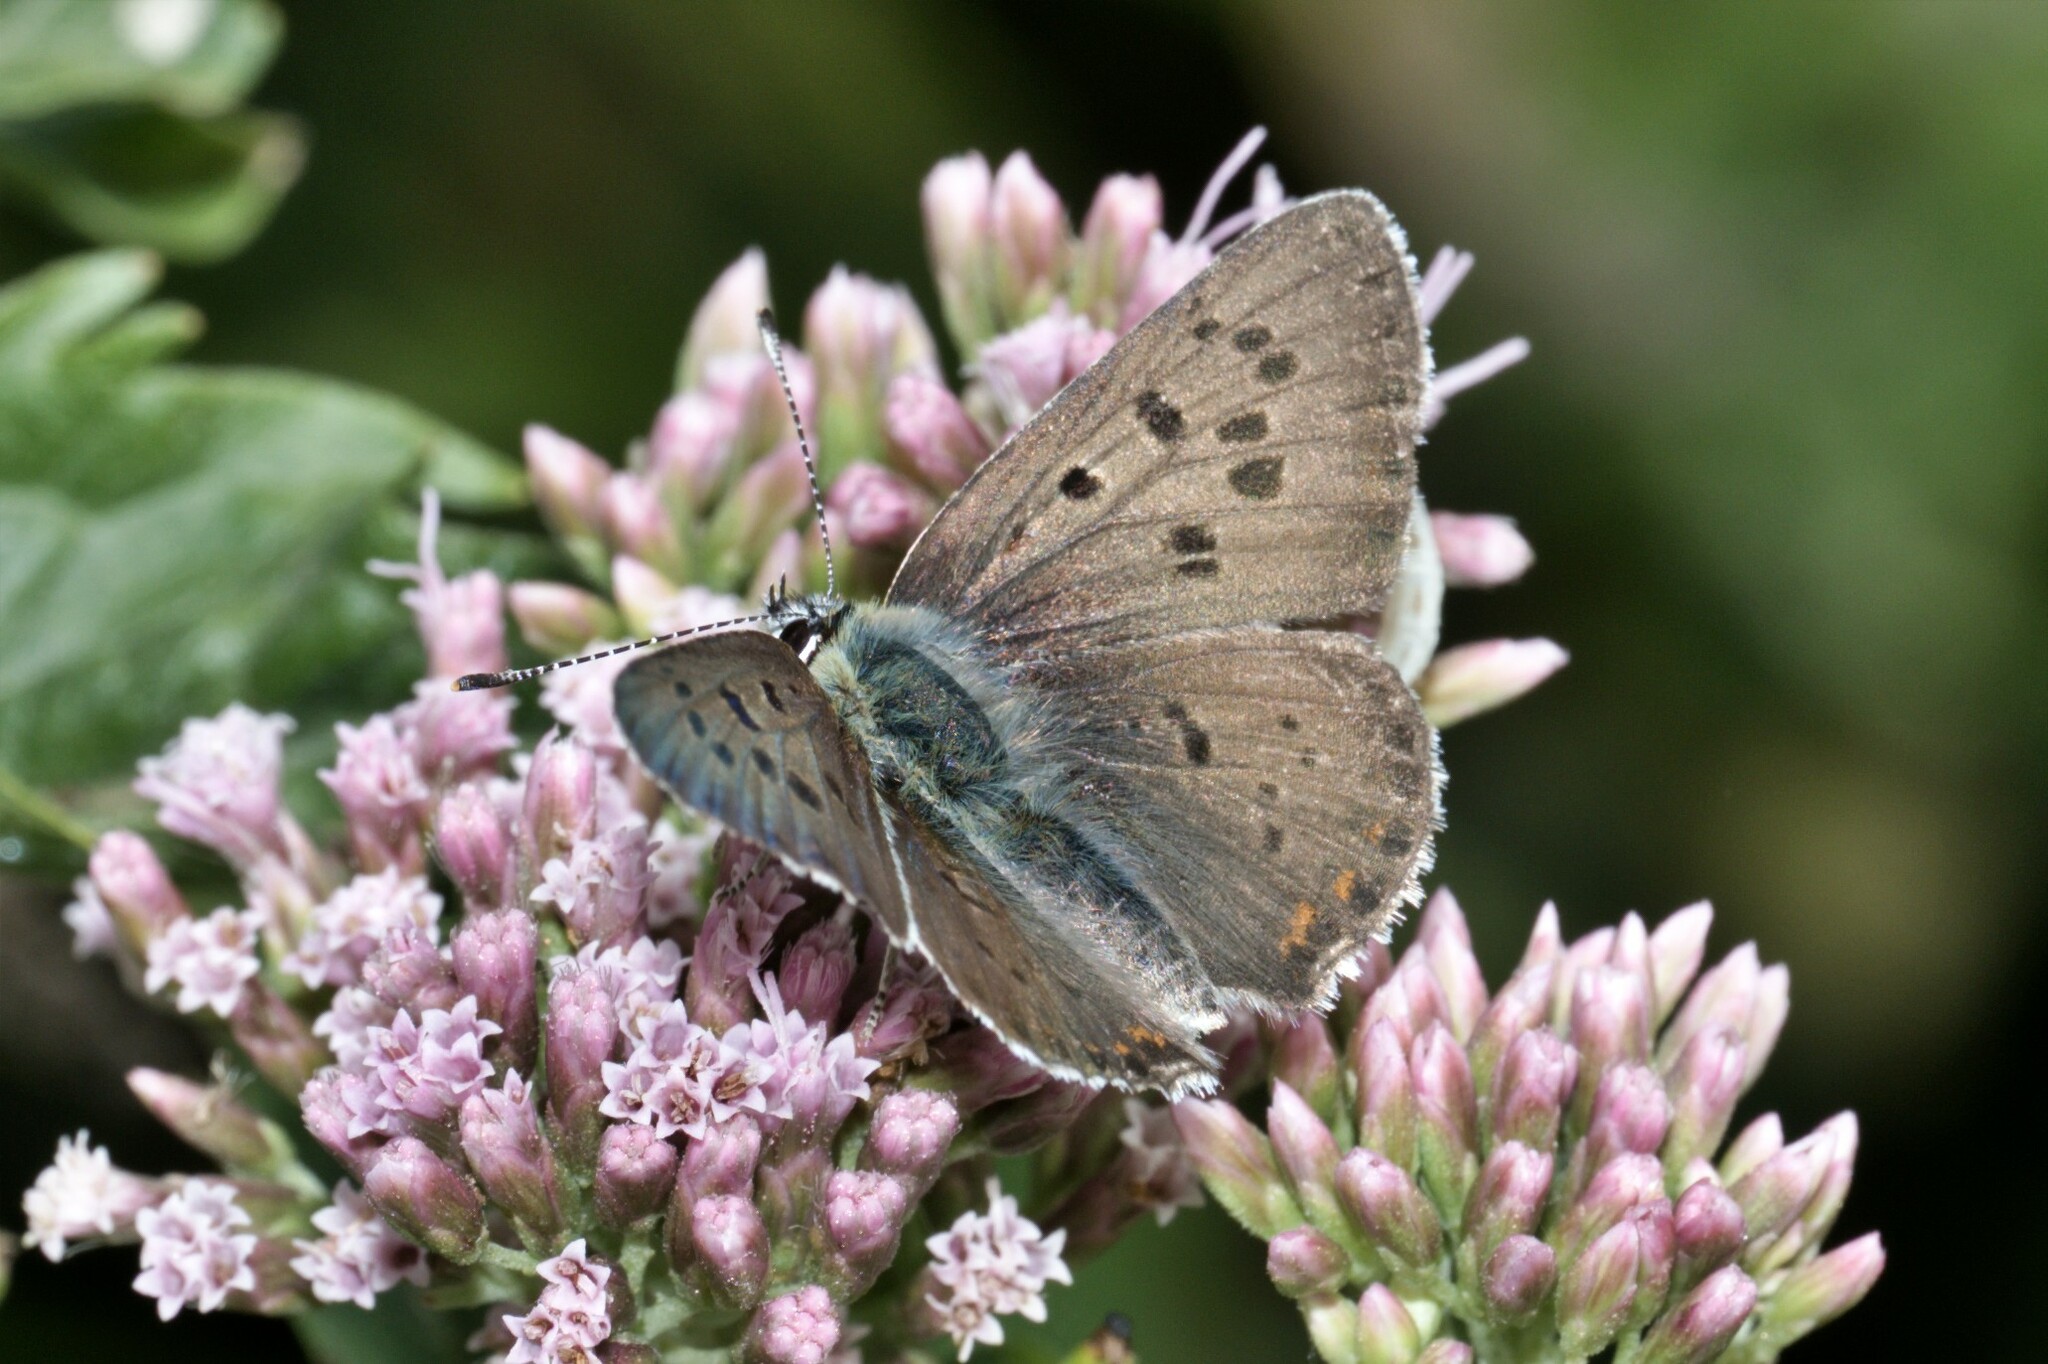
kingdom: Animalia
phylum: Arthropoda
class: Insecta
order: Lepidoptera
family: Lycaenidae
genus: Loweia
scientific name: Loweia tityrus
